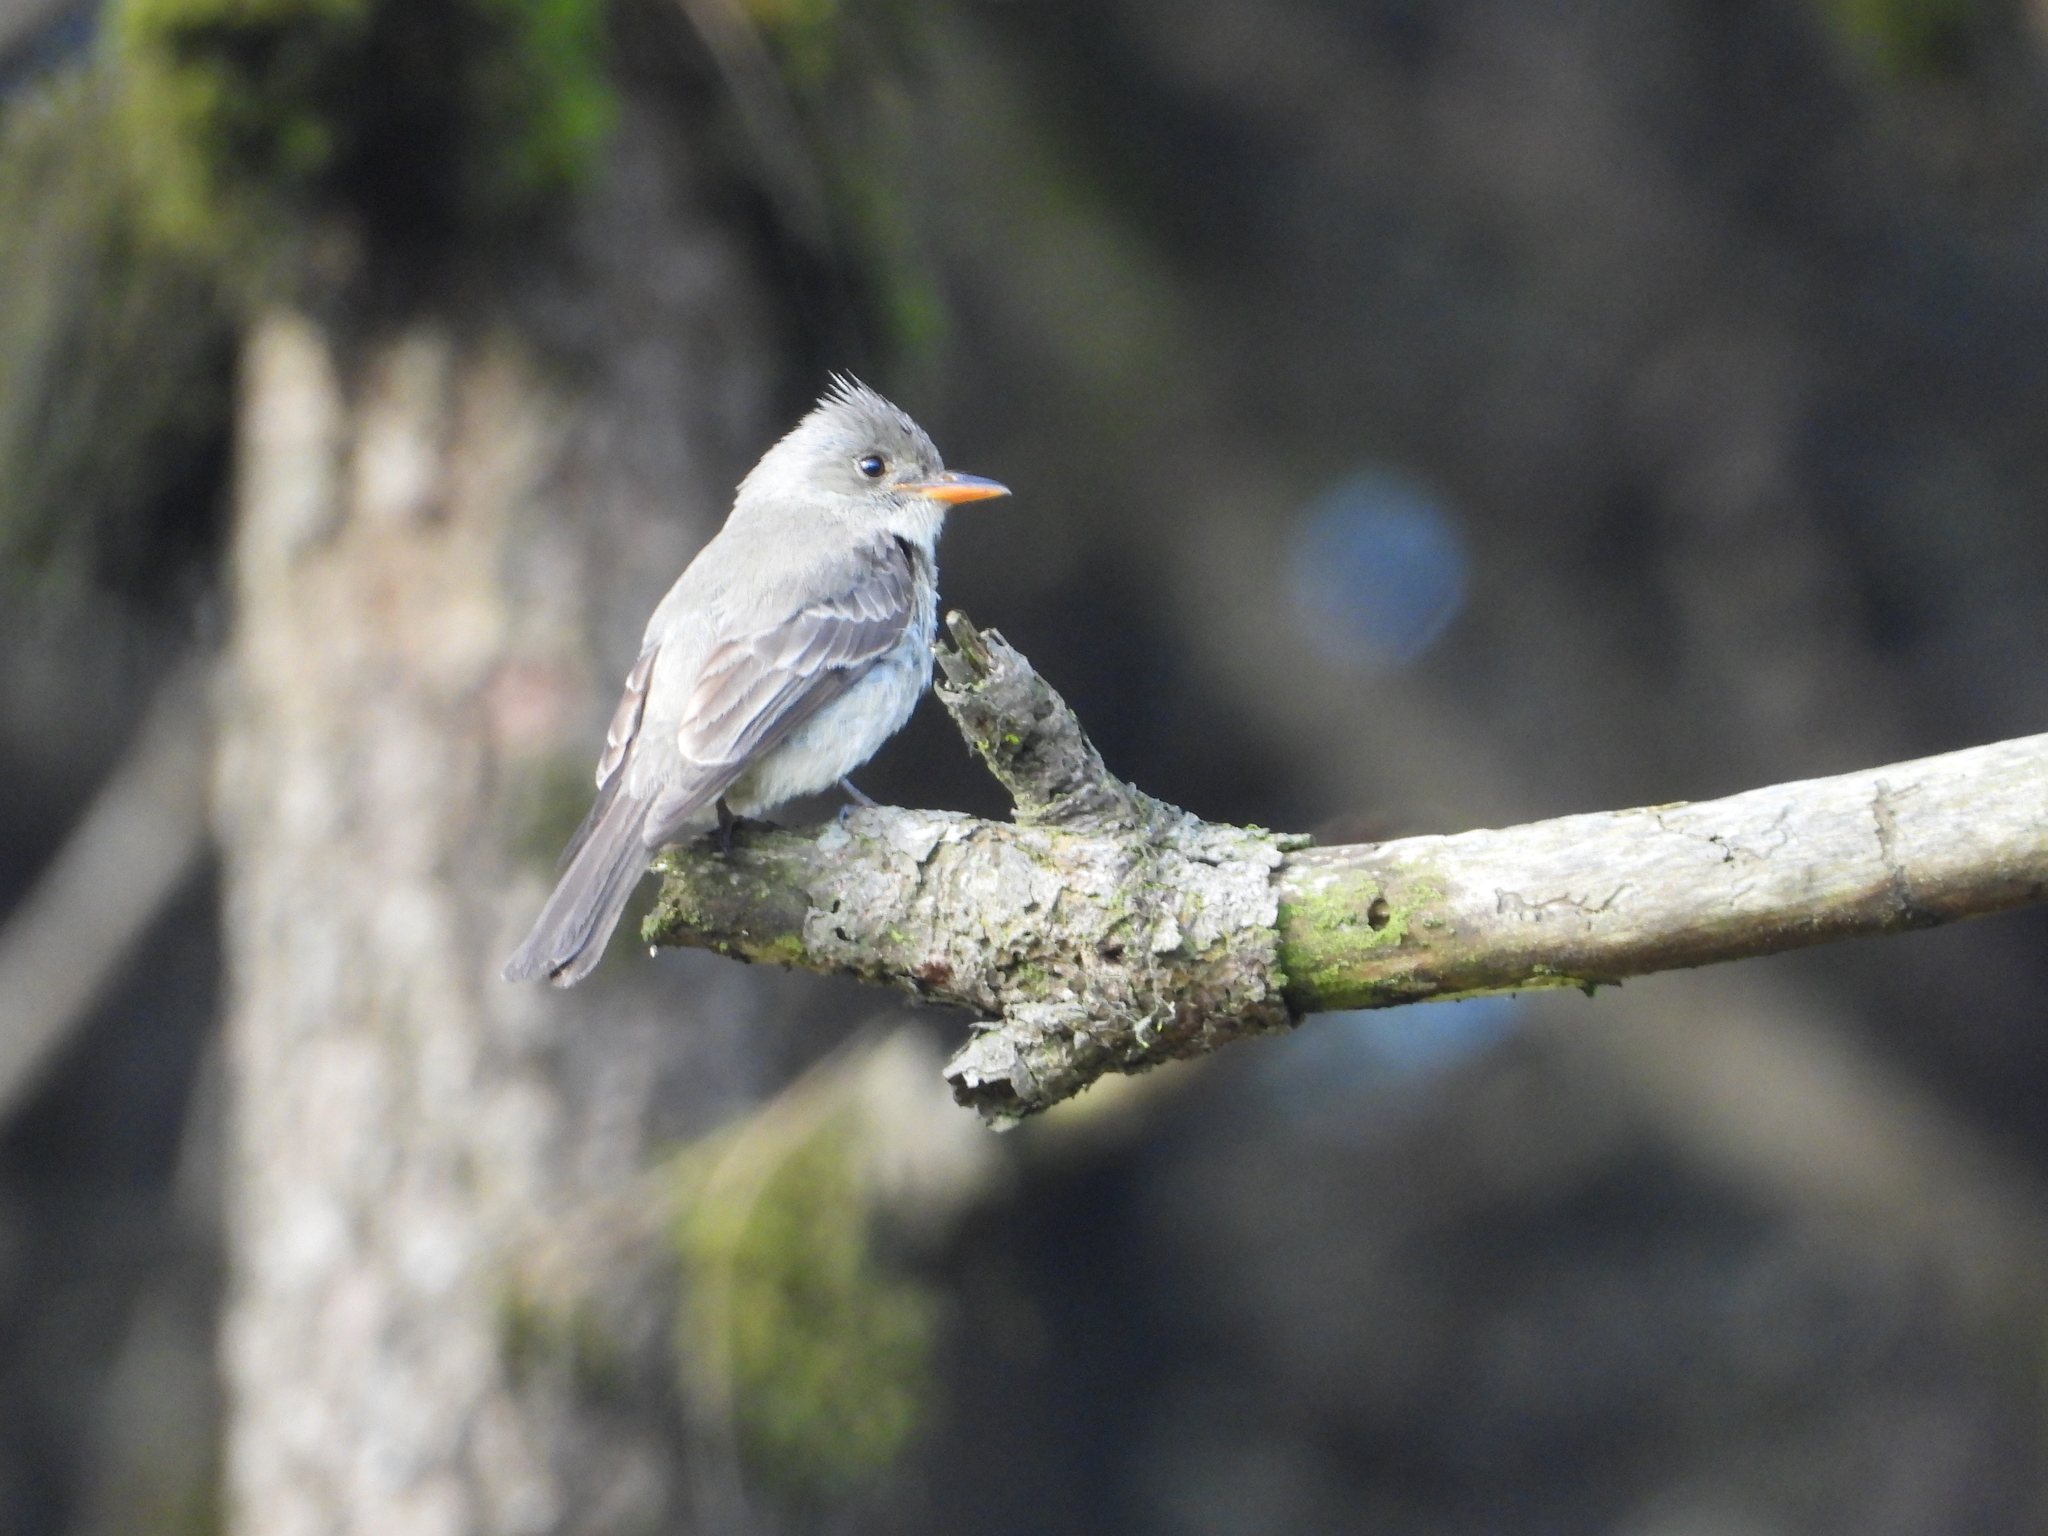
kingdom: Animalia
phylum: Chordata
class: Aves
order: Passeriformes
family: Tyrannidae
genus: Contopus
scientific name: Contopus pertinax
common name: Greater pewee
